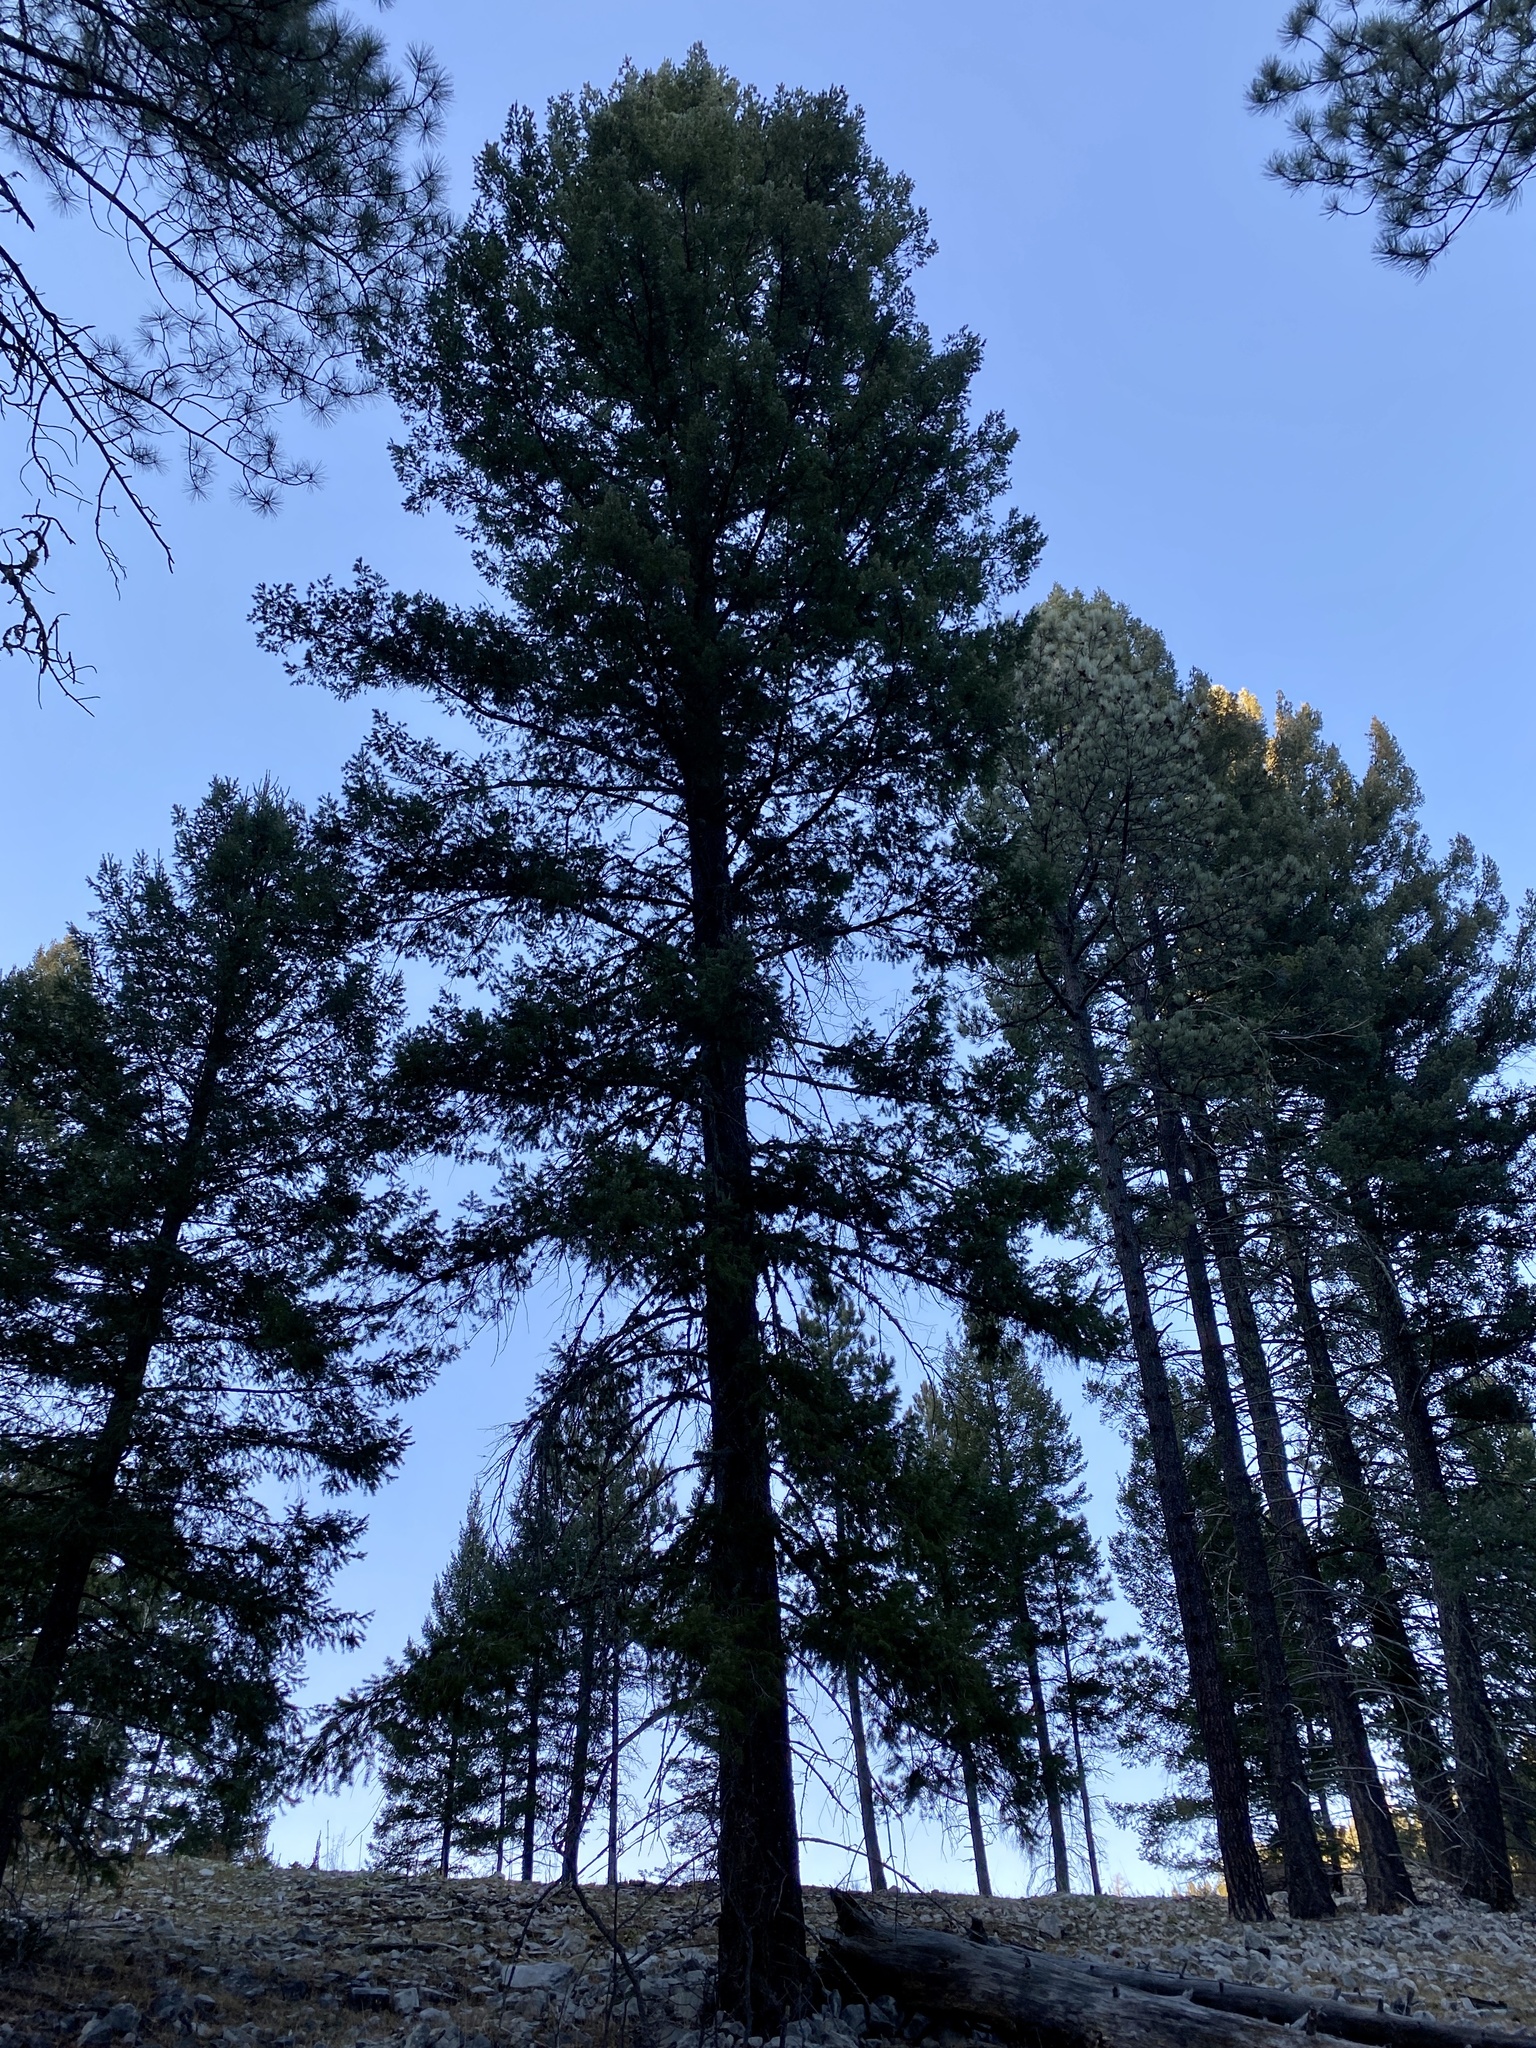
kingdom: Plantae
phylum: Tracheophyta
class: Pinopsida
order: Pinales
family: Pinaceae
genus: Pseudotsuga
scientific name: Pseudotsuga menziesii
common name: Douglas fir
